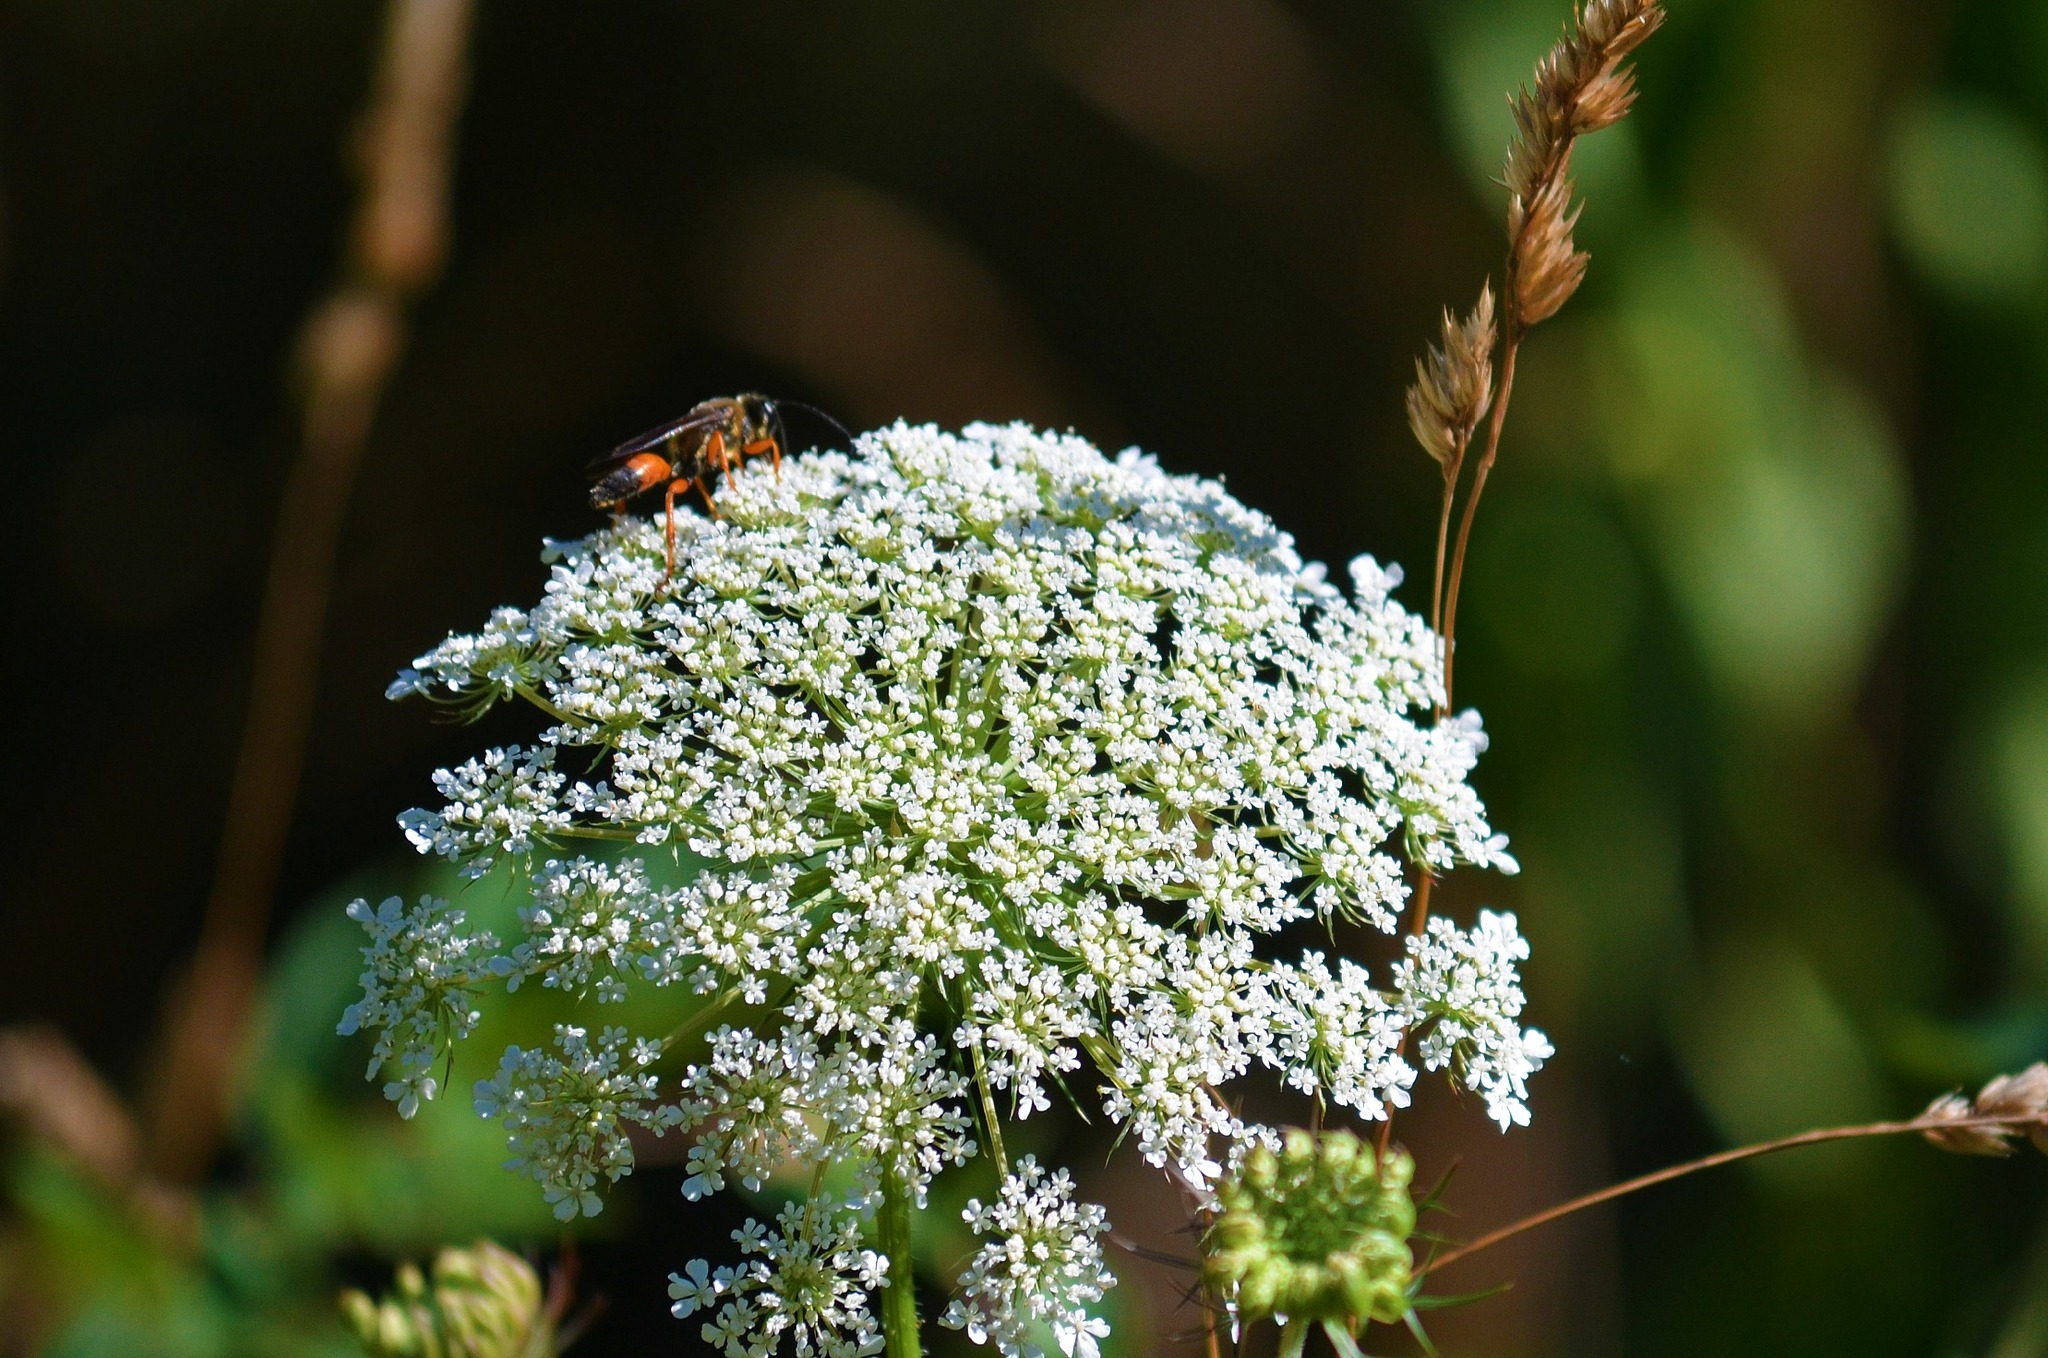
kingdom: Animalia
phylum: Arthropoda
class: Insecta
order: Hymenoptera
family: Sphecidae
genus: Sphex
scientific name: Sphex ichneumoneus
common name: Great golden digger wasp
